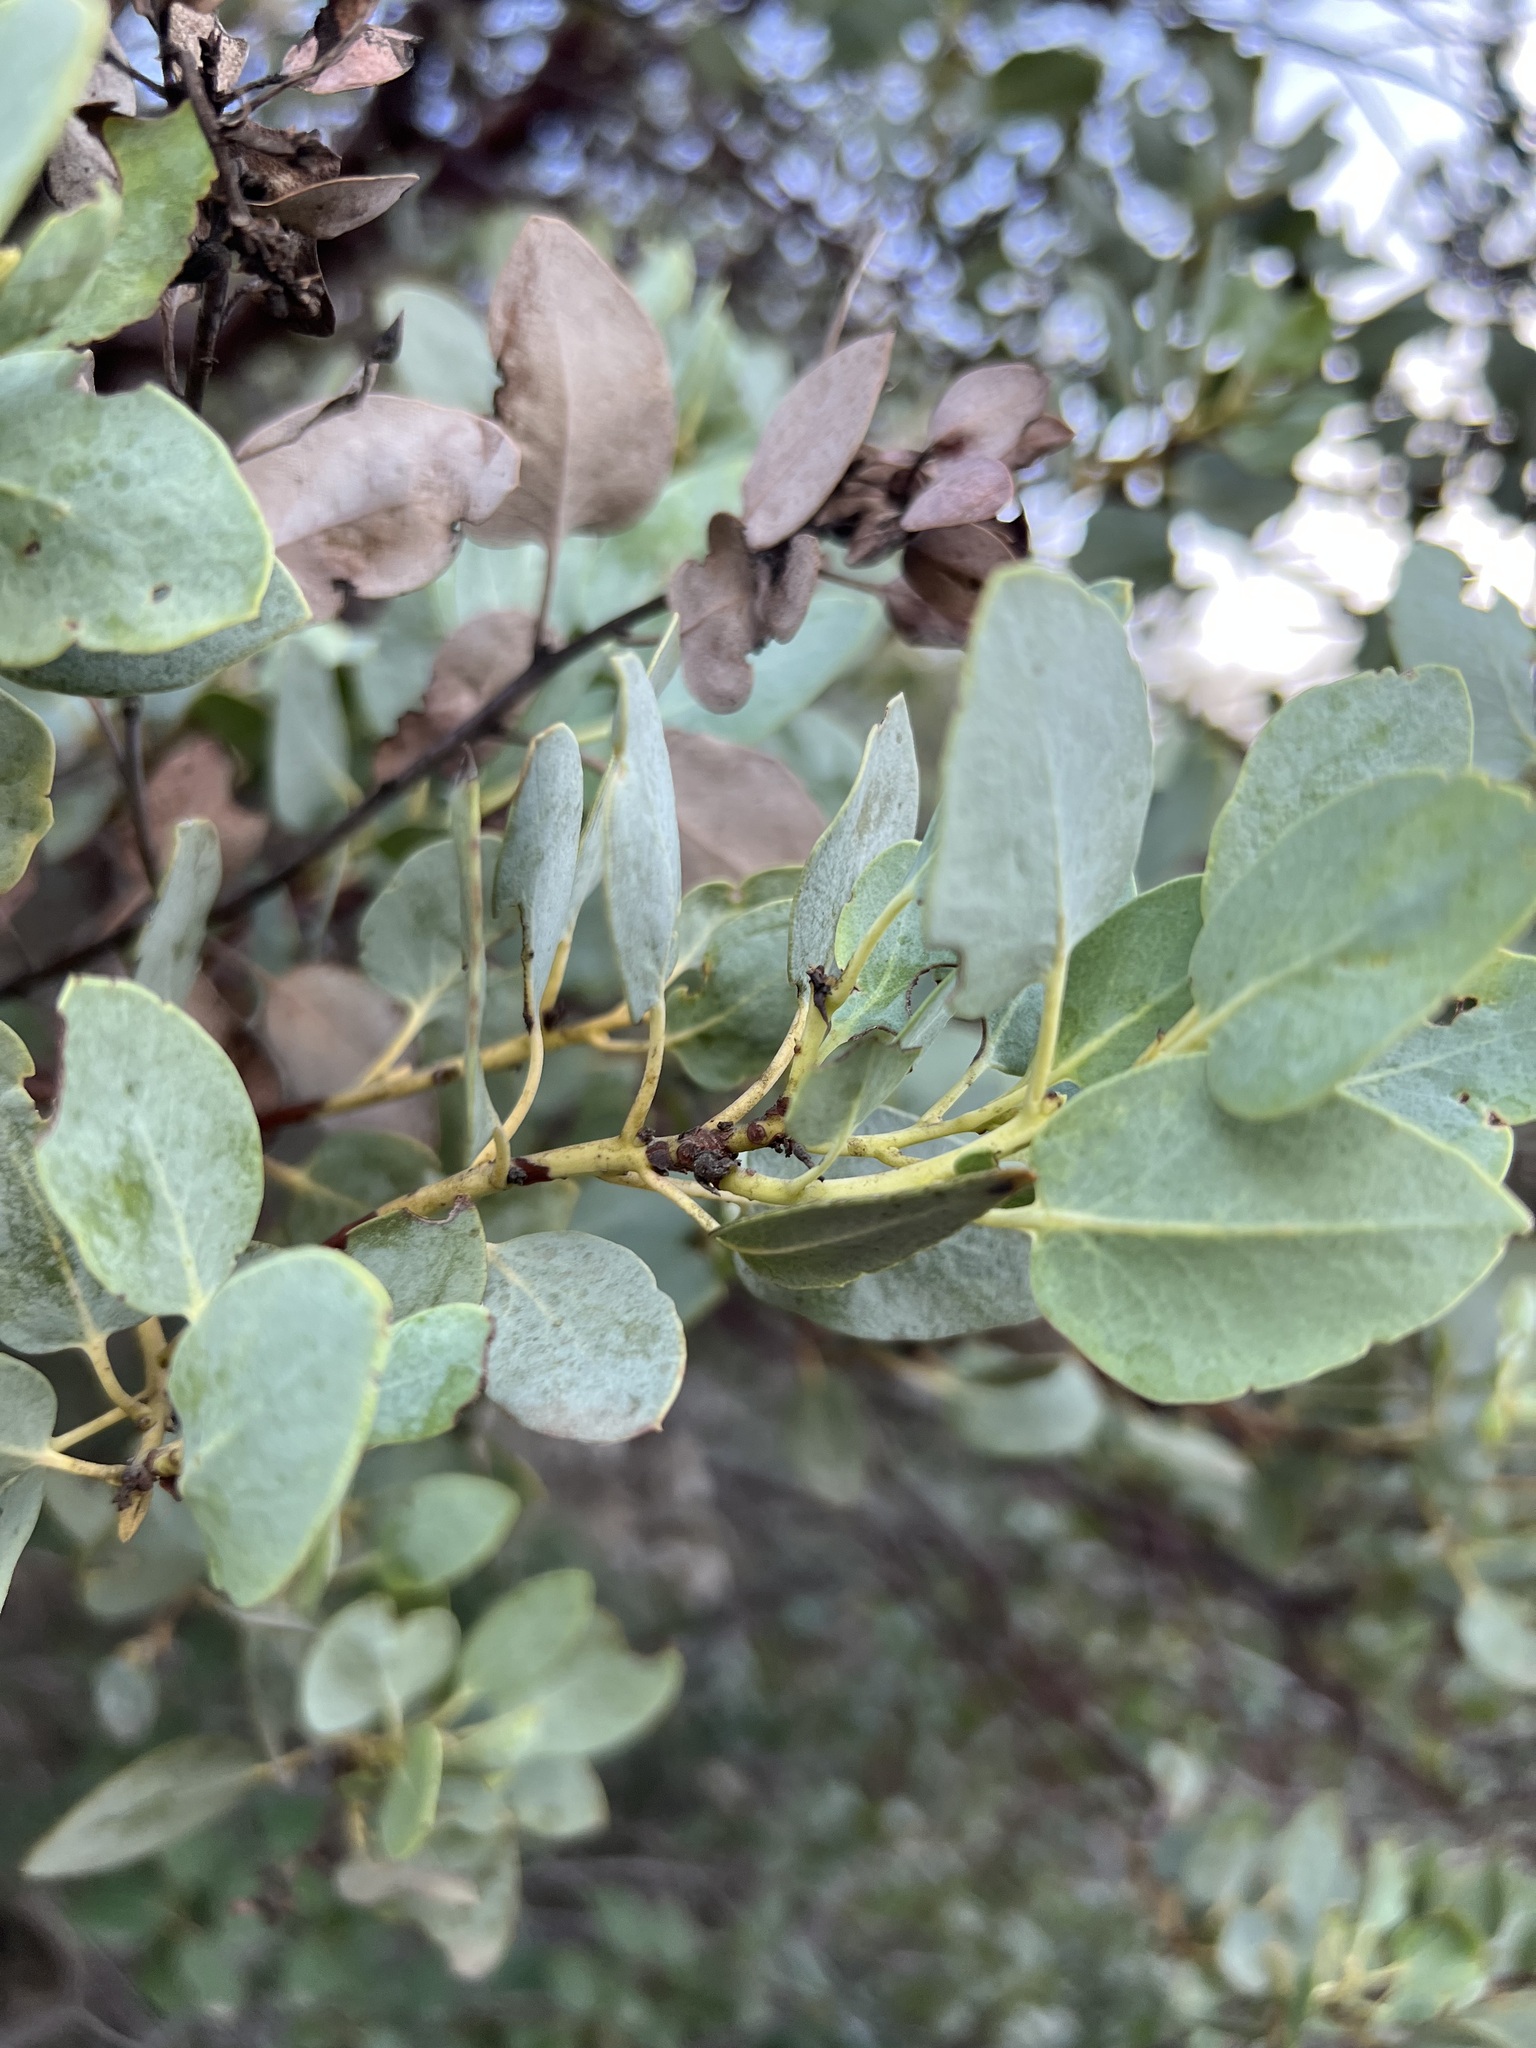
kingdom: Plantae
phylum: Tracheophyta
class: Magnoliopsida
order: Ericales
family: Ericaceae
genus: Arctostaphylos
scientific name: Arctostaphylos glauca
